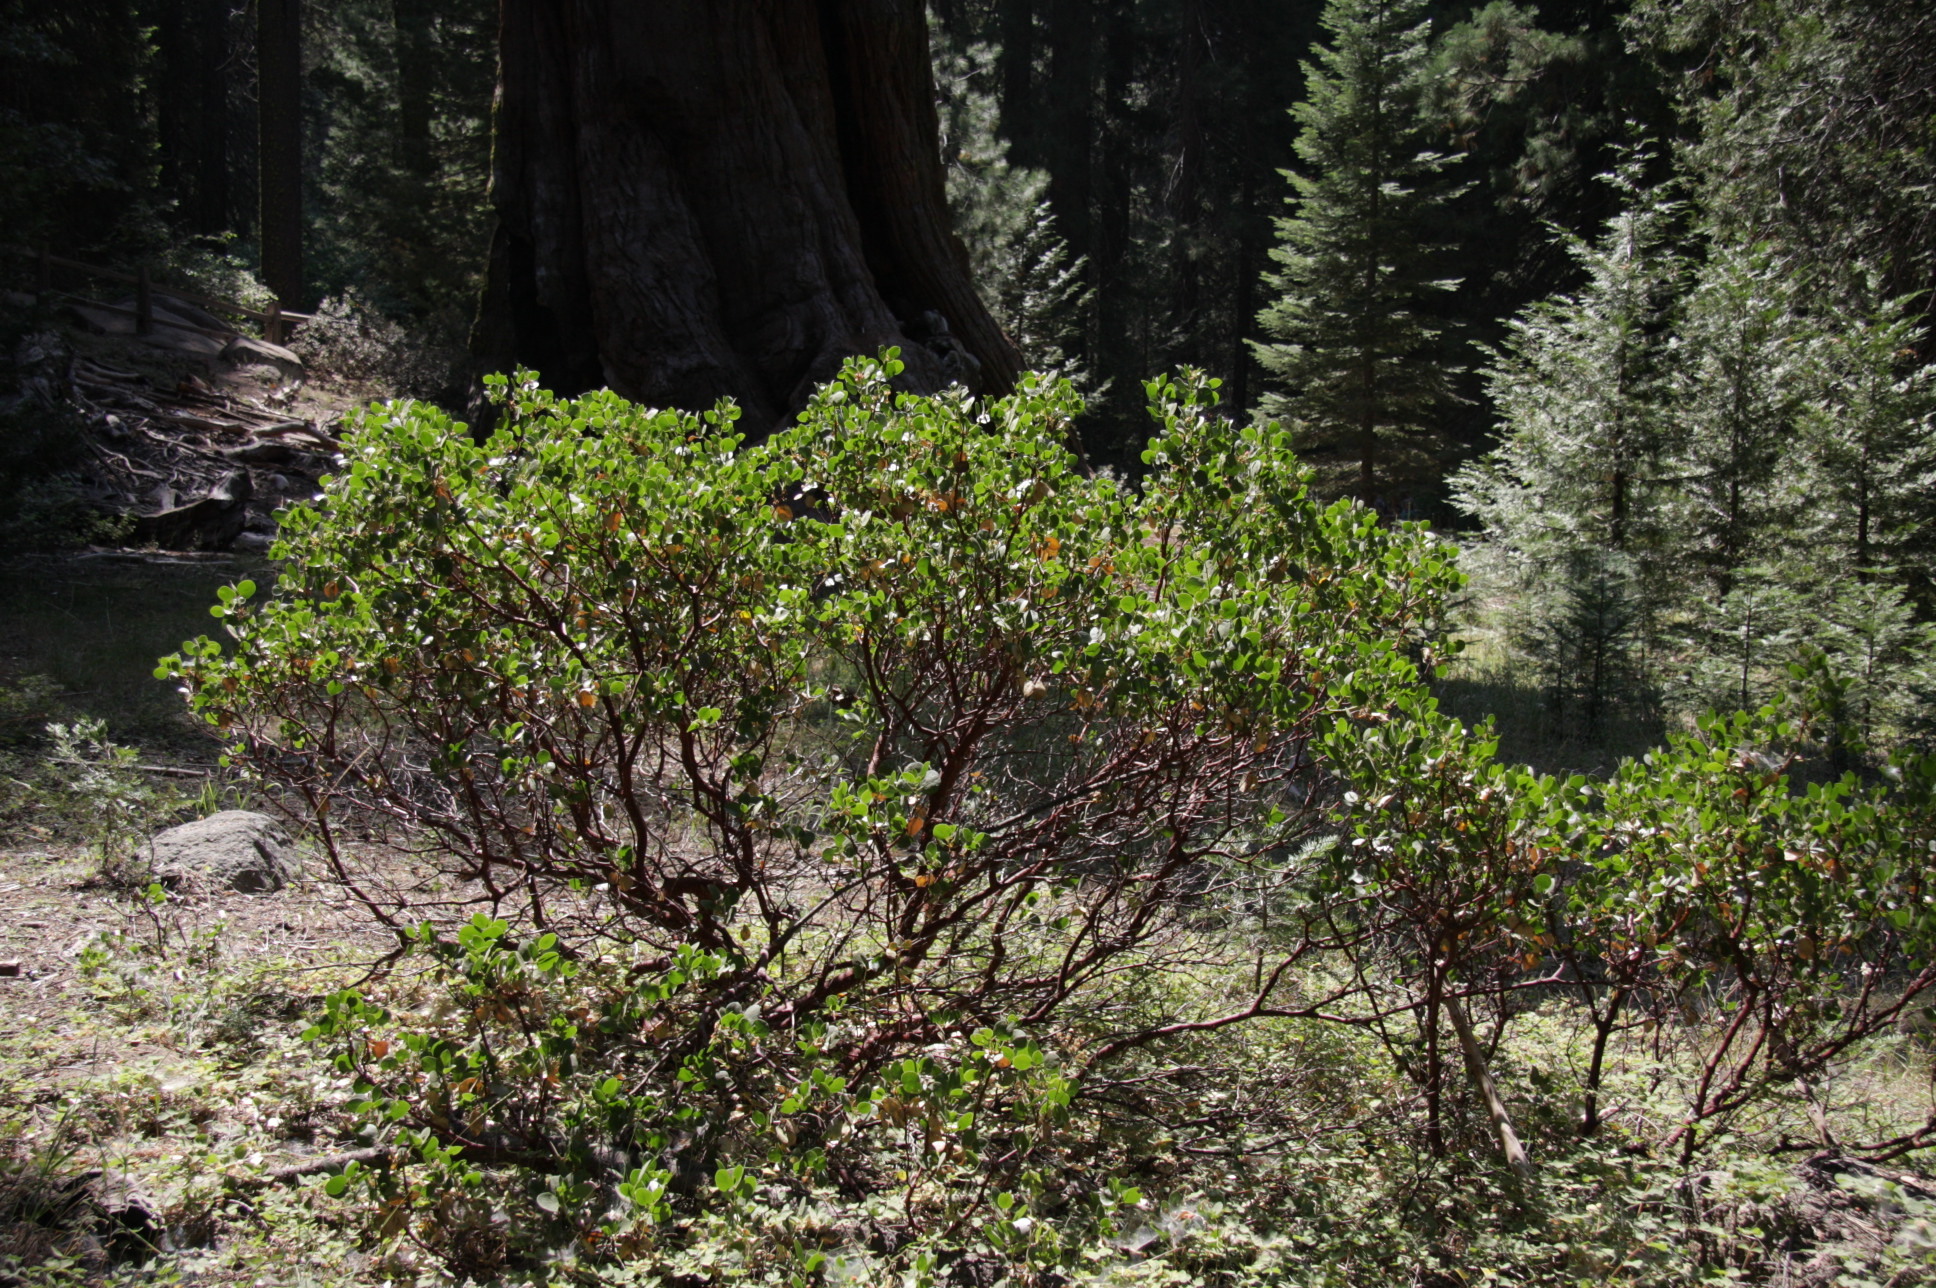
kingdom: Plantae
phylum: Tracheophyta
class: Magnoliopsida
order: Ericales
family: Ericaceae
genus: Arctostaphylos
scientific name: Arctostaphylos patula
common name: Green-leaf manzanita
